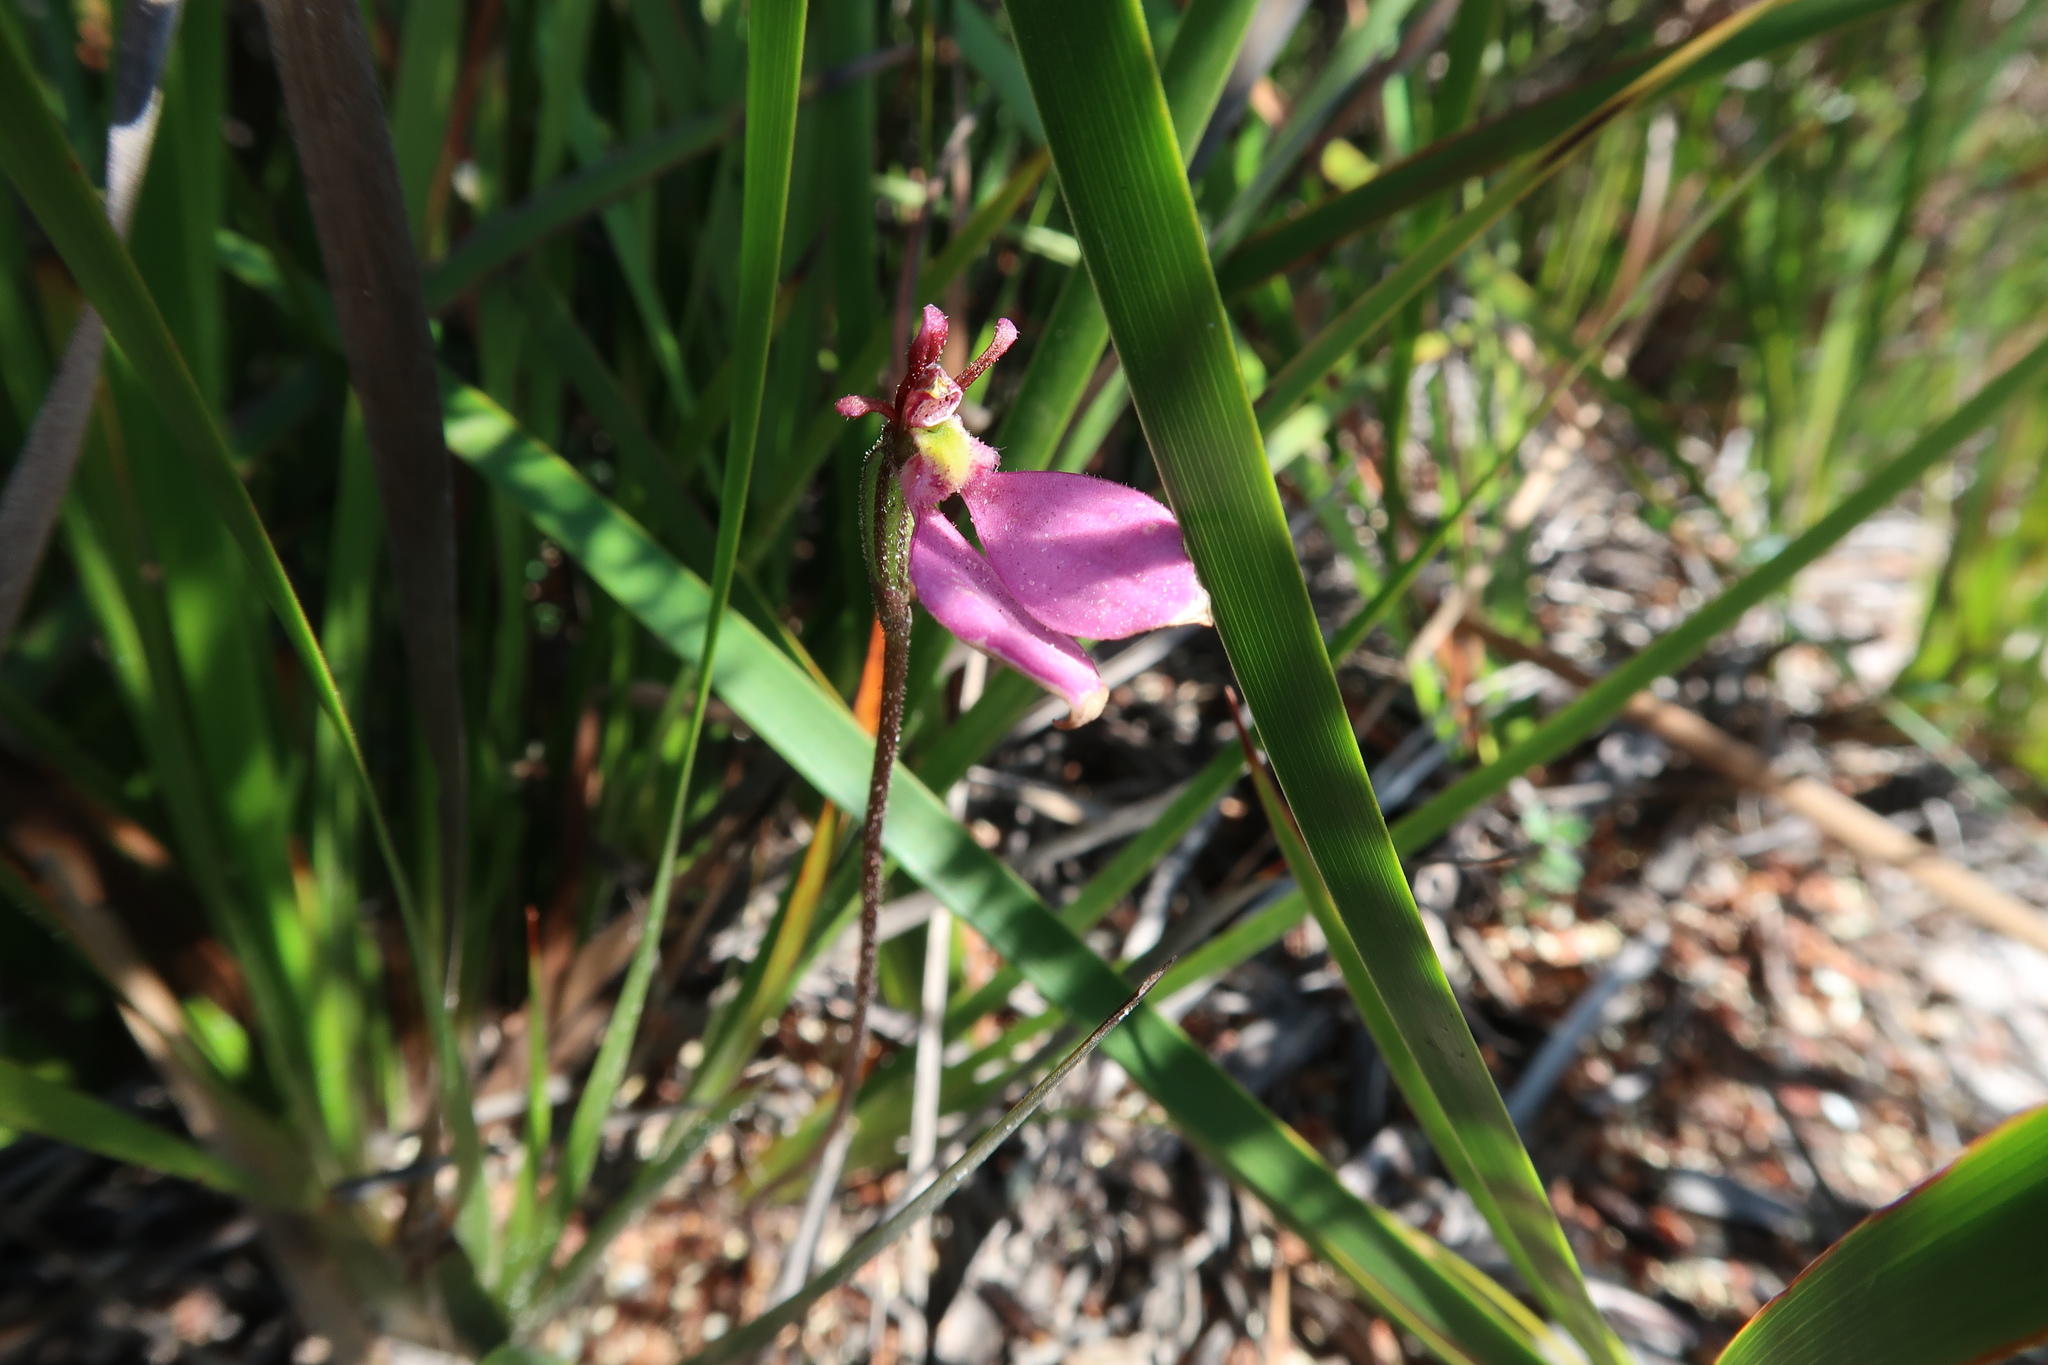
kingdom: Plantae
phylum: Tracheophyta
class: Liliopsida
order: Asparagales
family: Orchidaceae
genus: Eriochilus
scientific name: Eriochilus cucullatus
